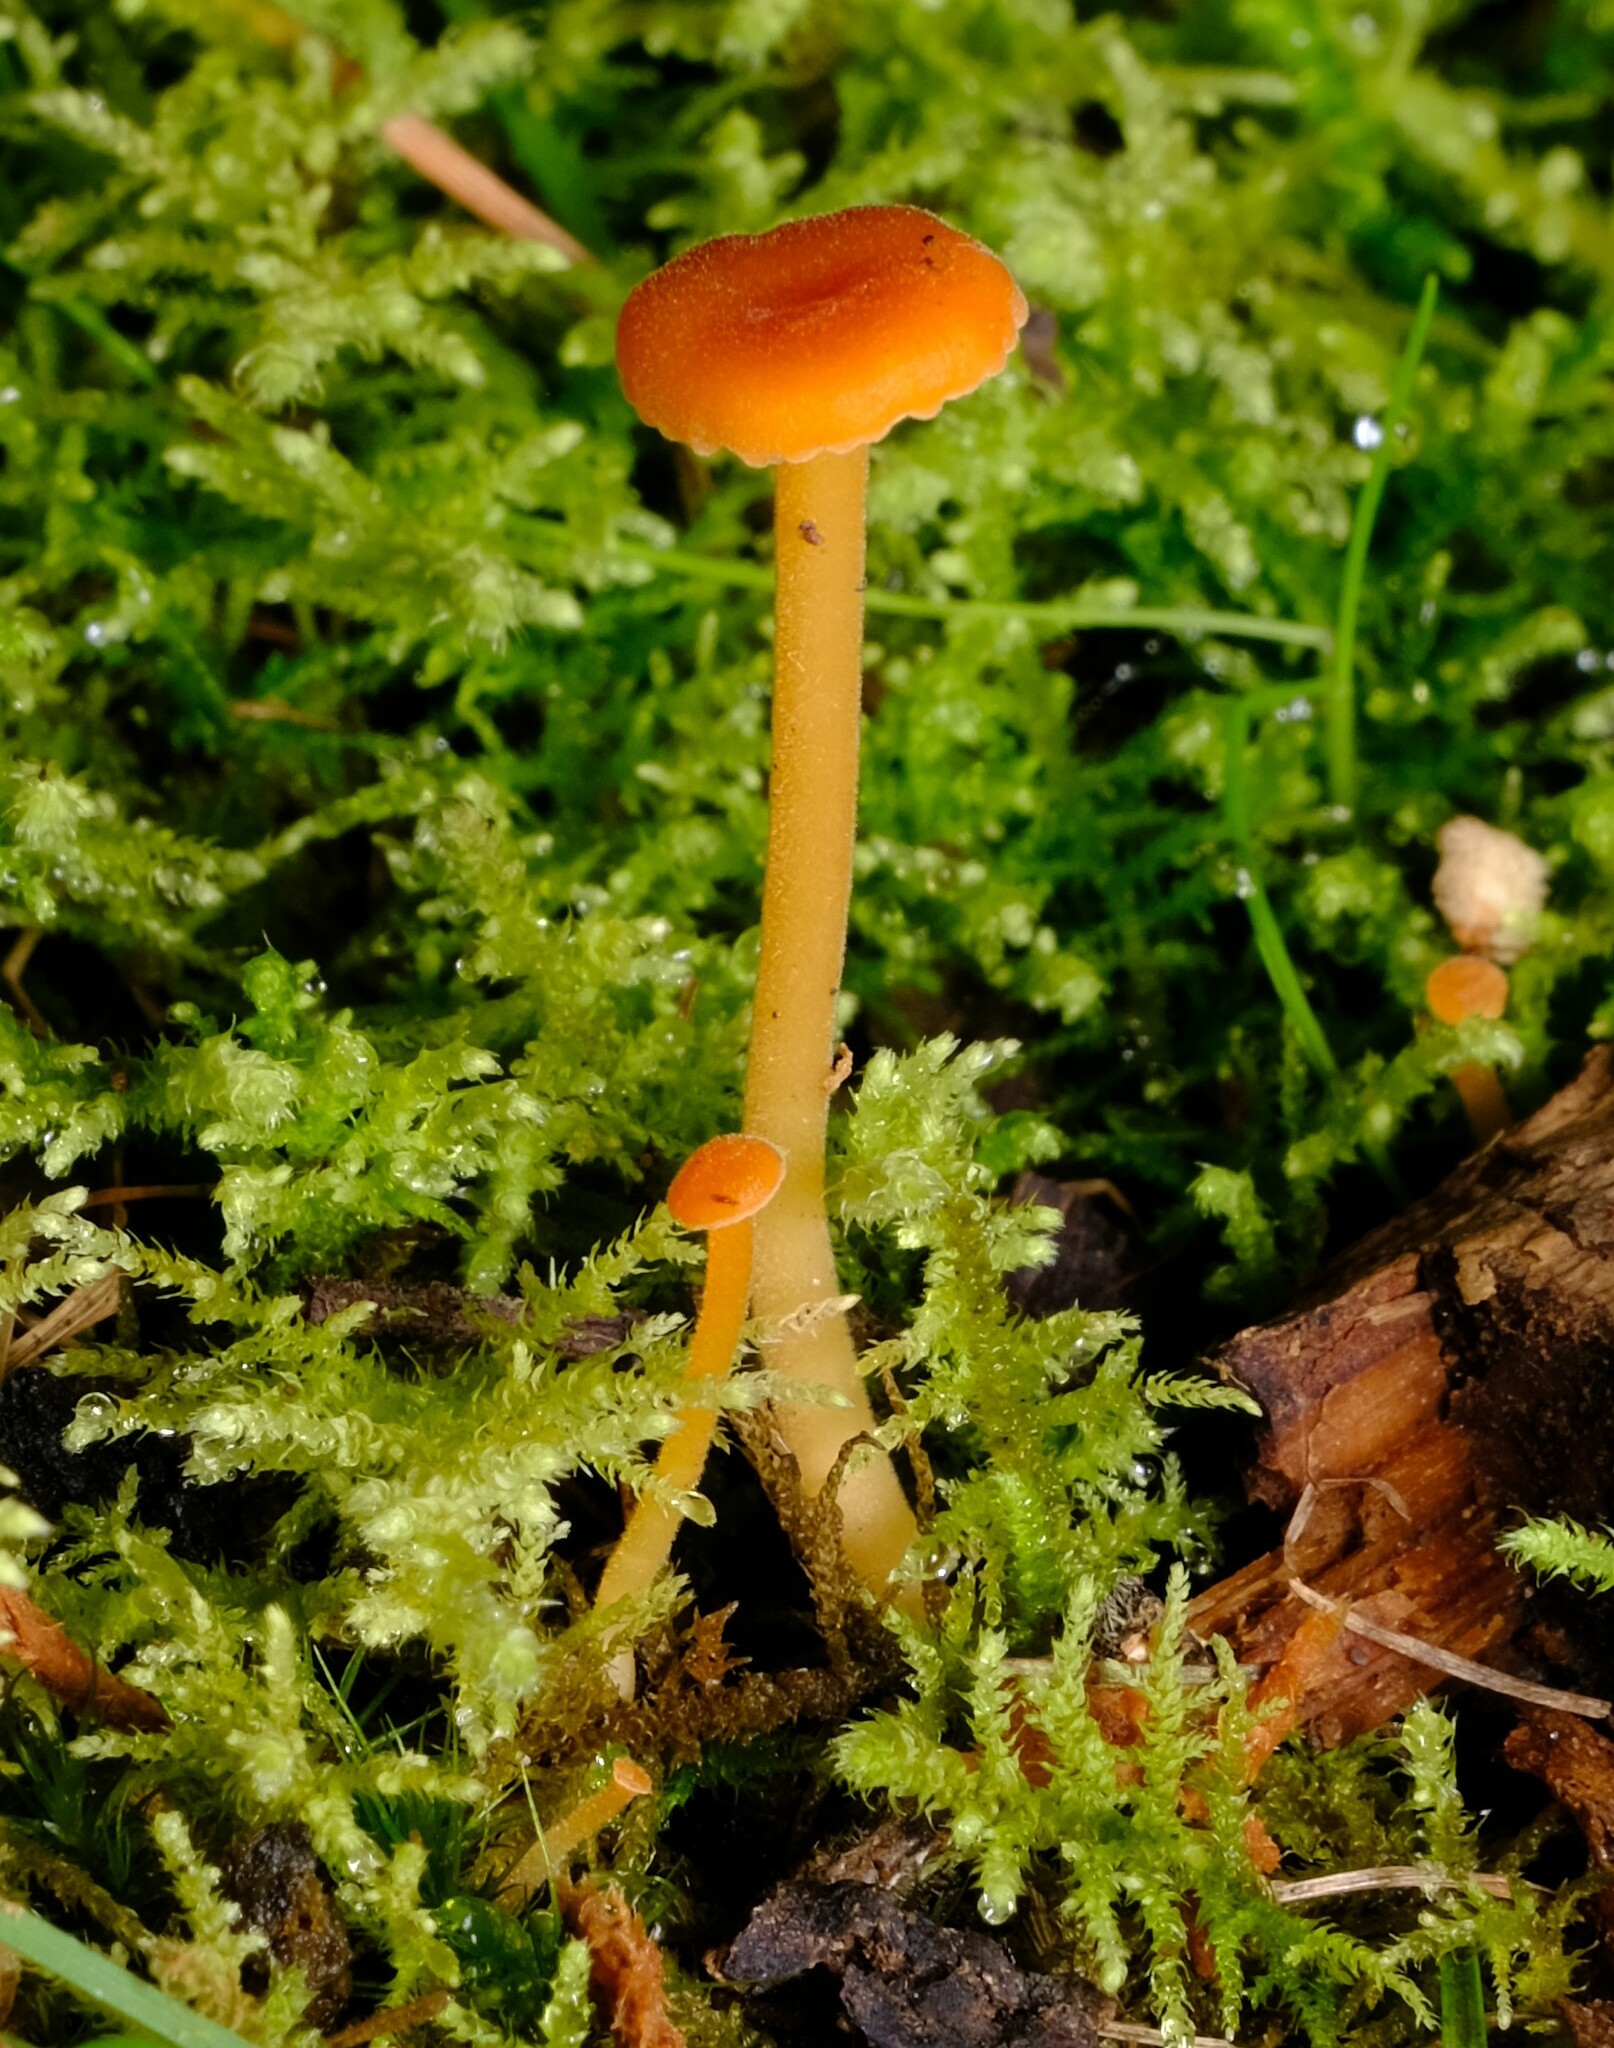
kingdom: Fungi
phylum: Basidiomycota
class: Agaricomycetes
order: Hymenochaetales
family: Rickenellaceae
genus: Rickenella
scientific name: Rickenella fibula
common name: Orange mosscap
